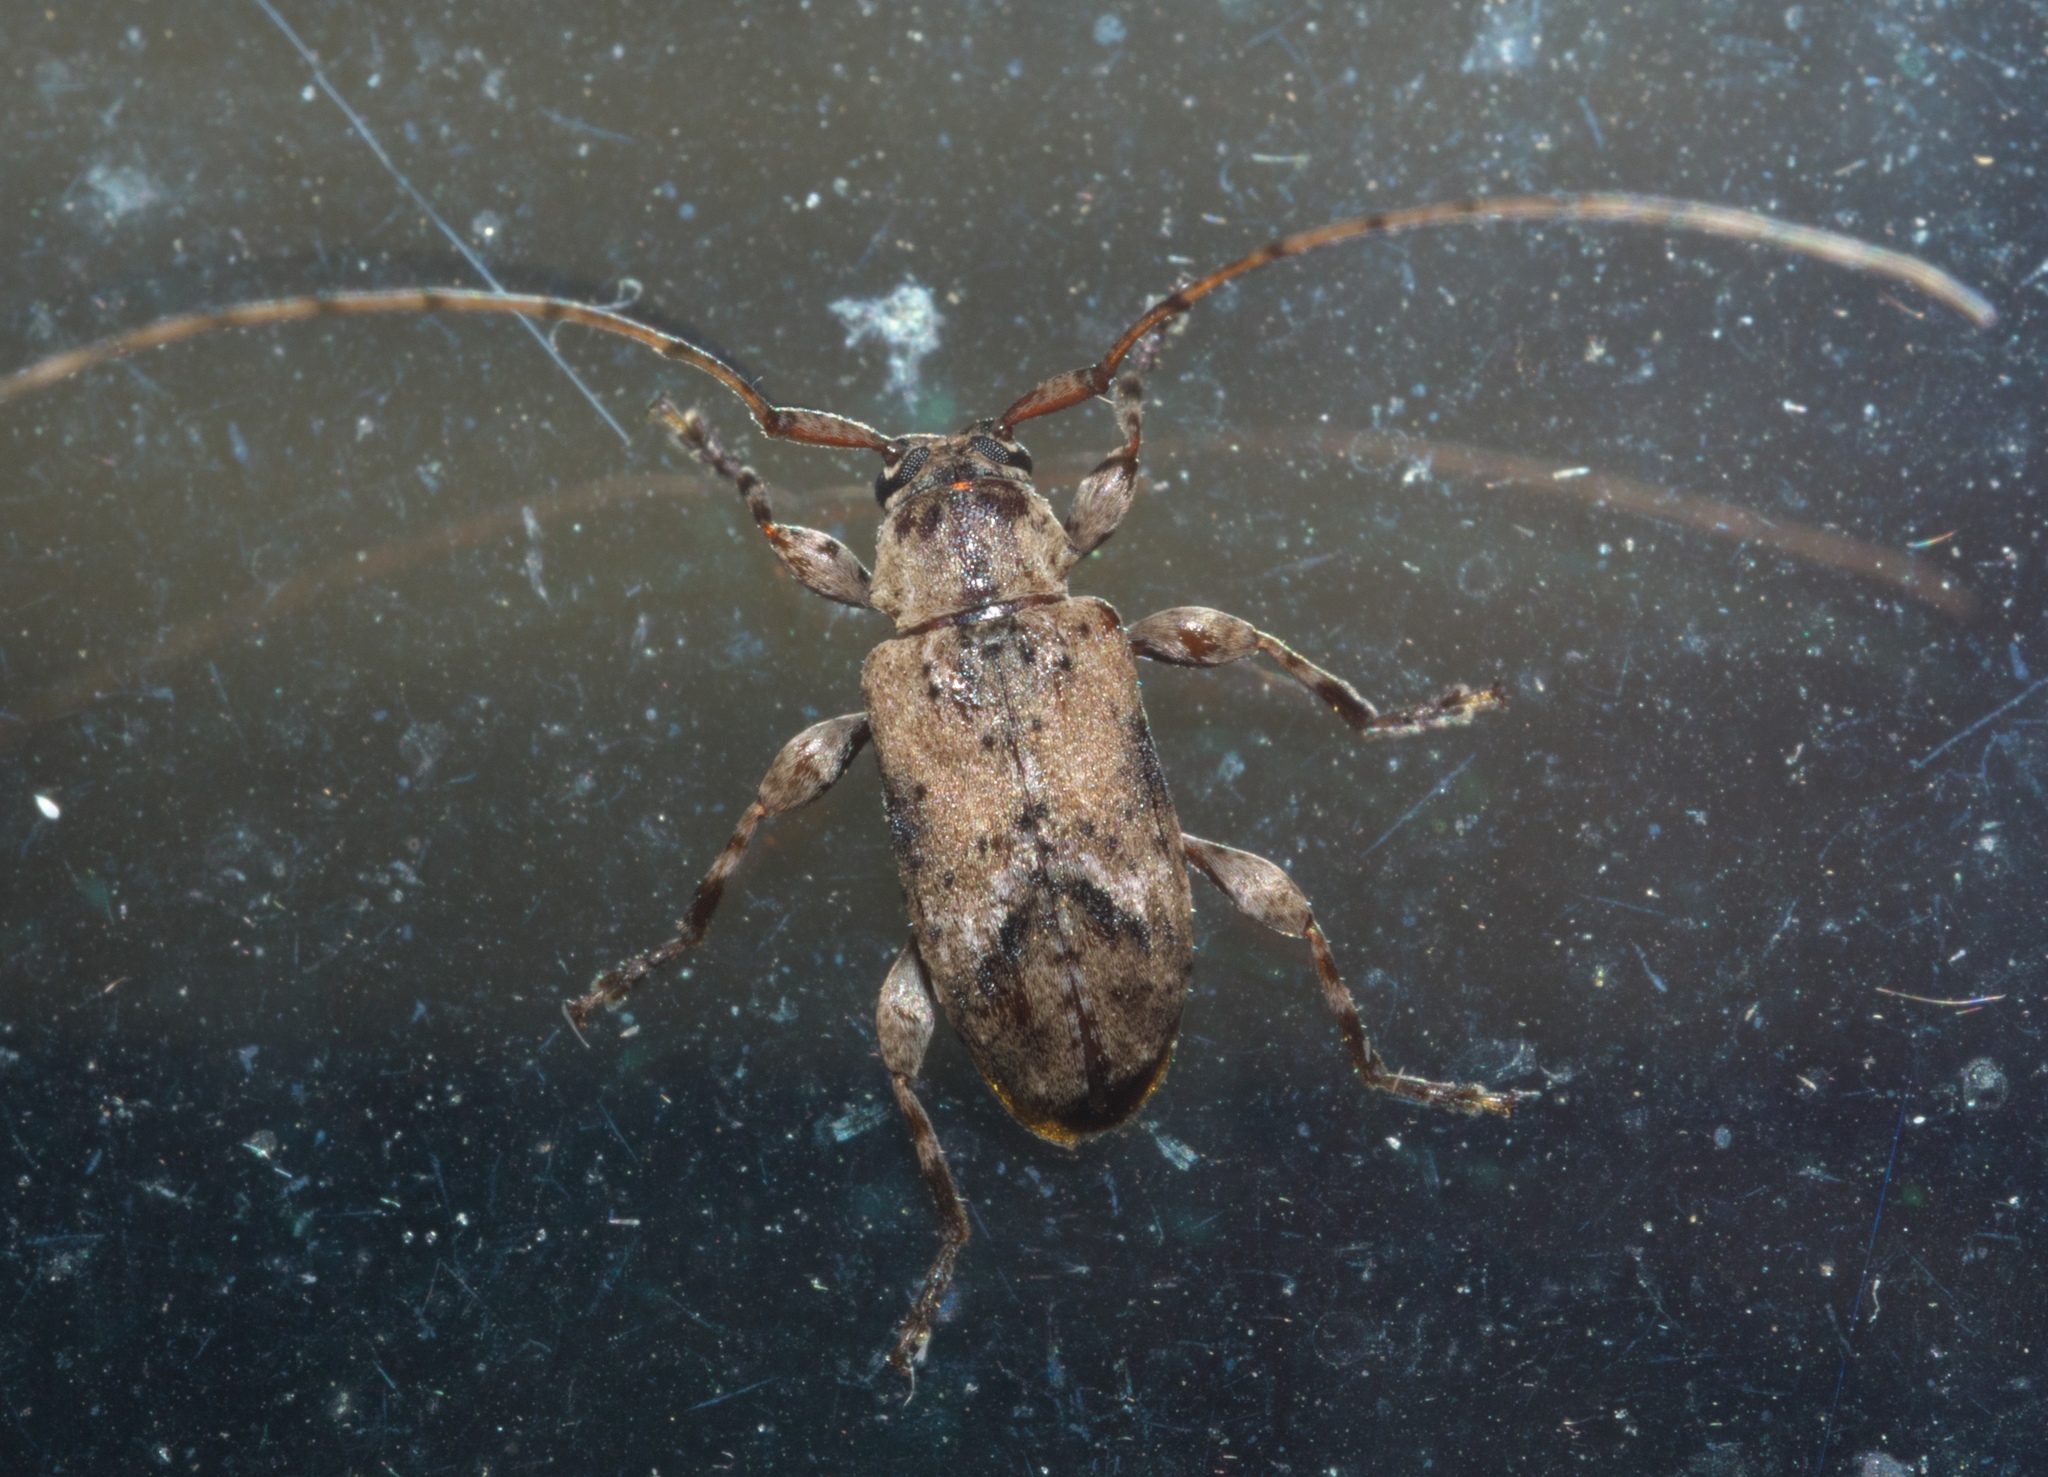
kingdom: Animalia
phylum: Arthropoda
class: Insecta
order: Coleoptera
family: Cerambycidae
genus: Sternidius
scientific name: Sternidius punctatus
